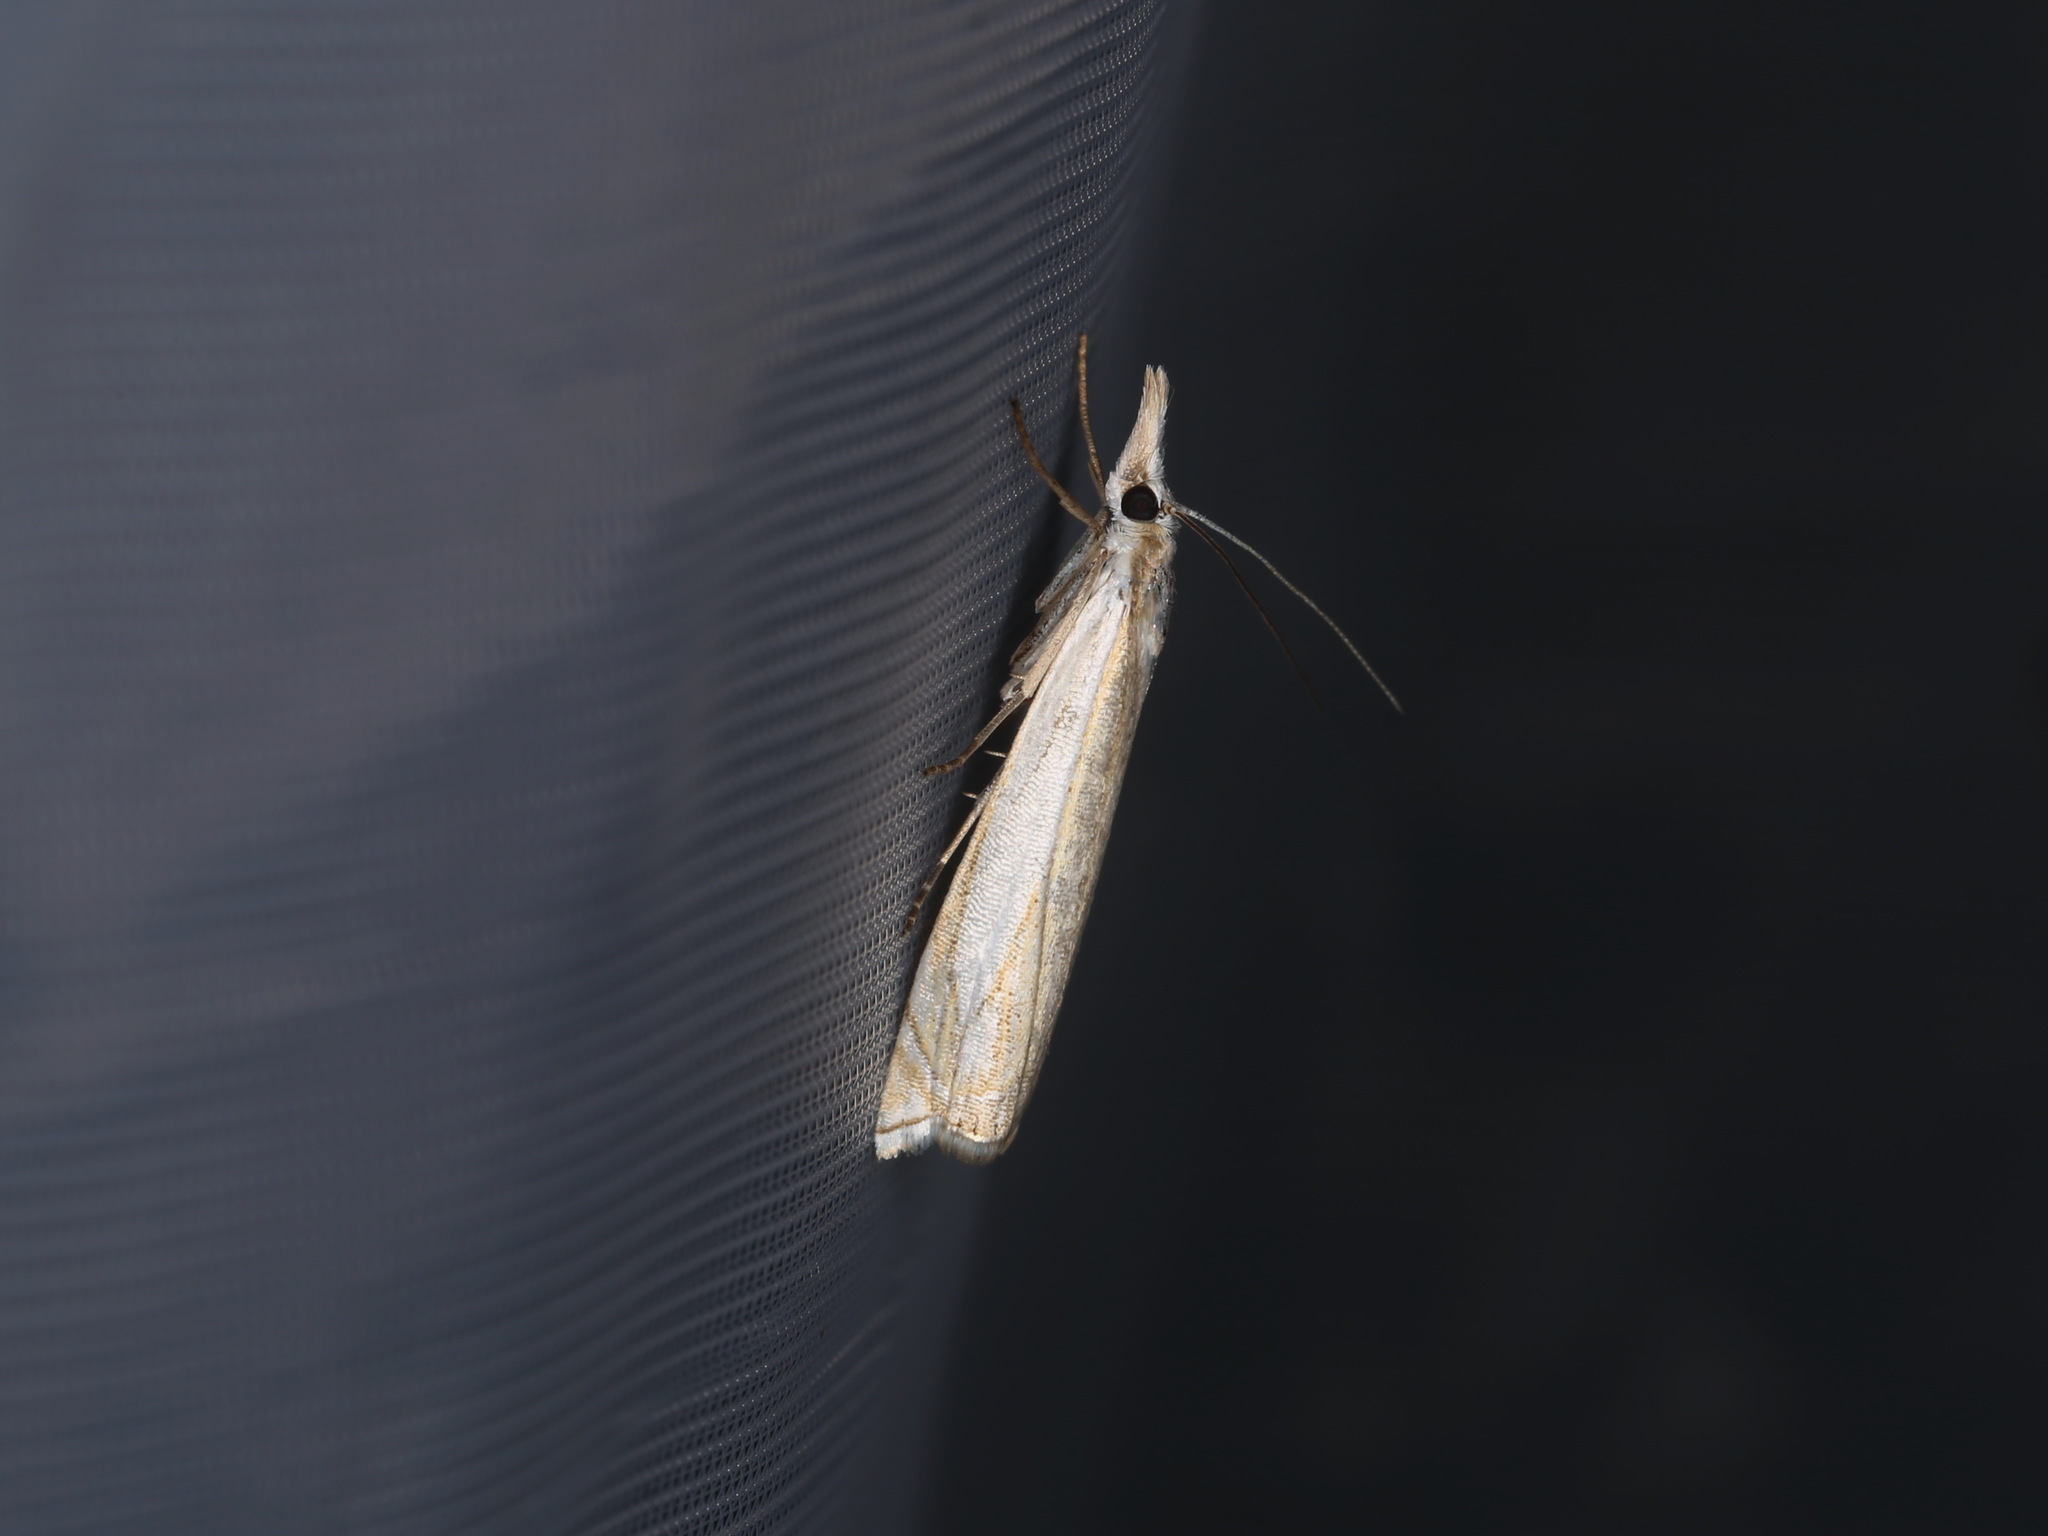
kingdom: Animalia
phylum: Arthropoda
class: Insecta
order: Lepidoptera
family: Crambidae
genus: Crambus
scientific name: Crambus pascuella
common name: Inlaid grass-veneer
